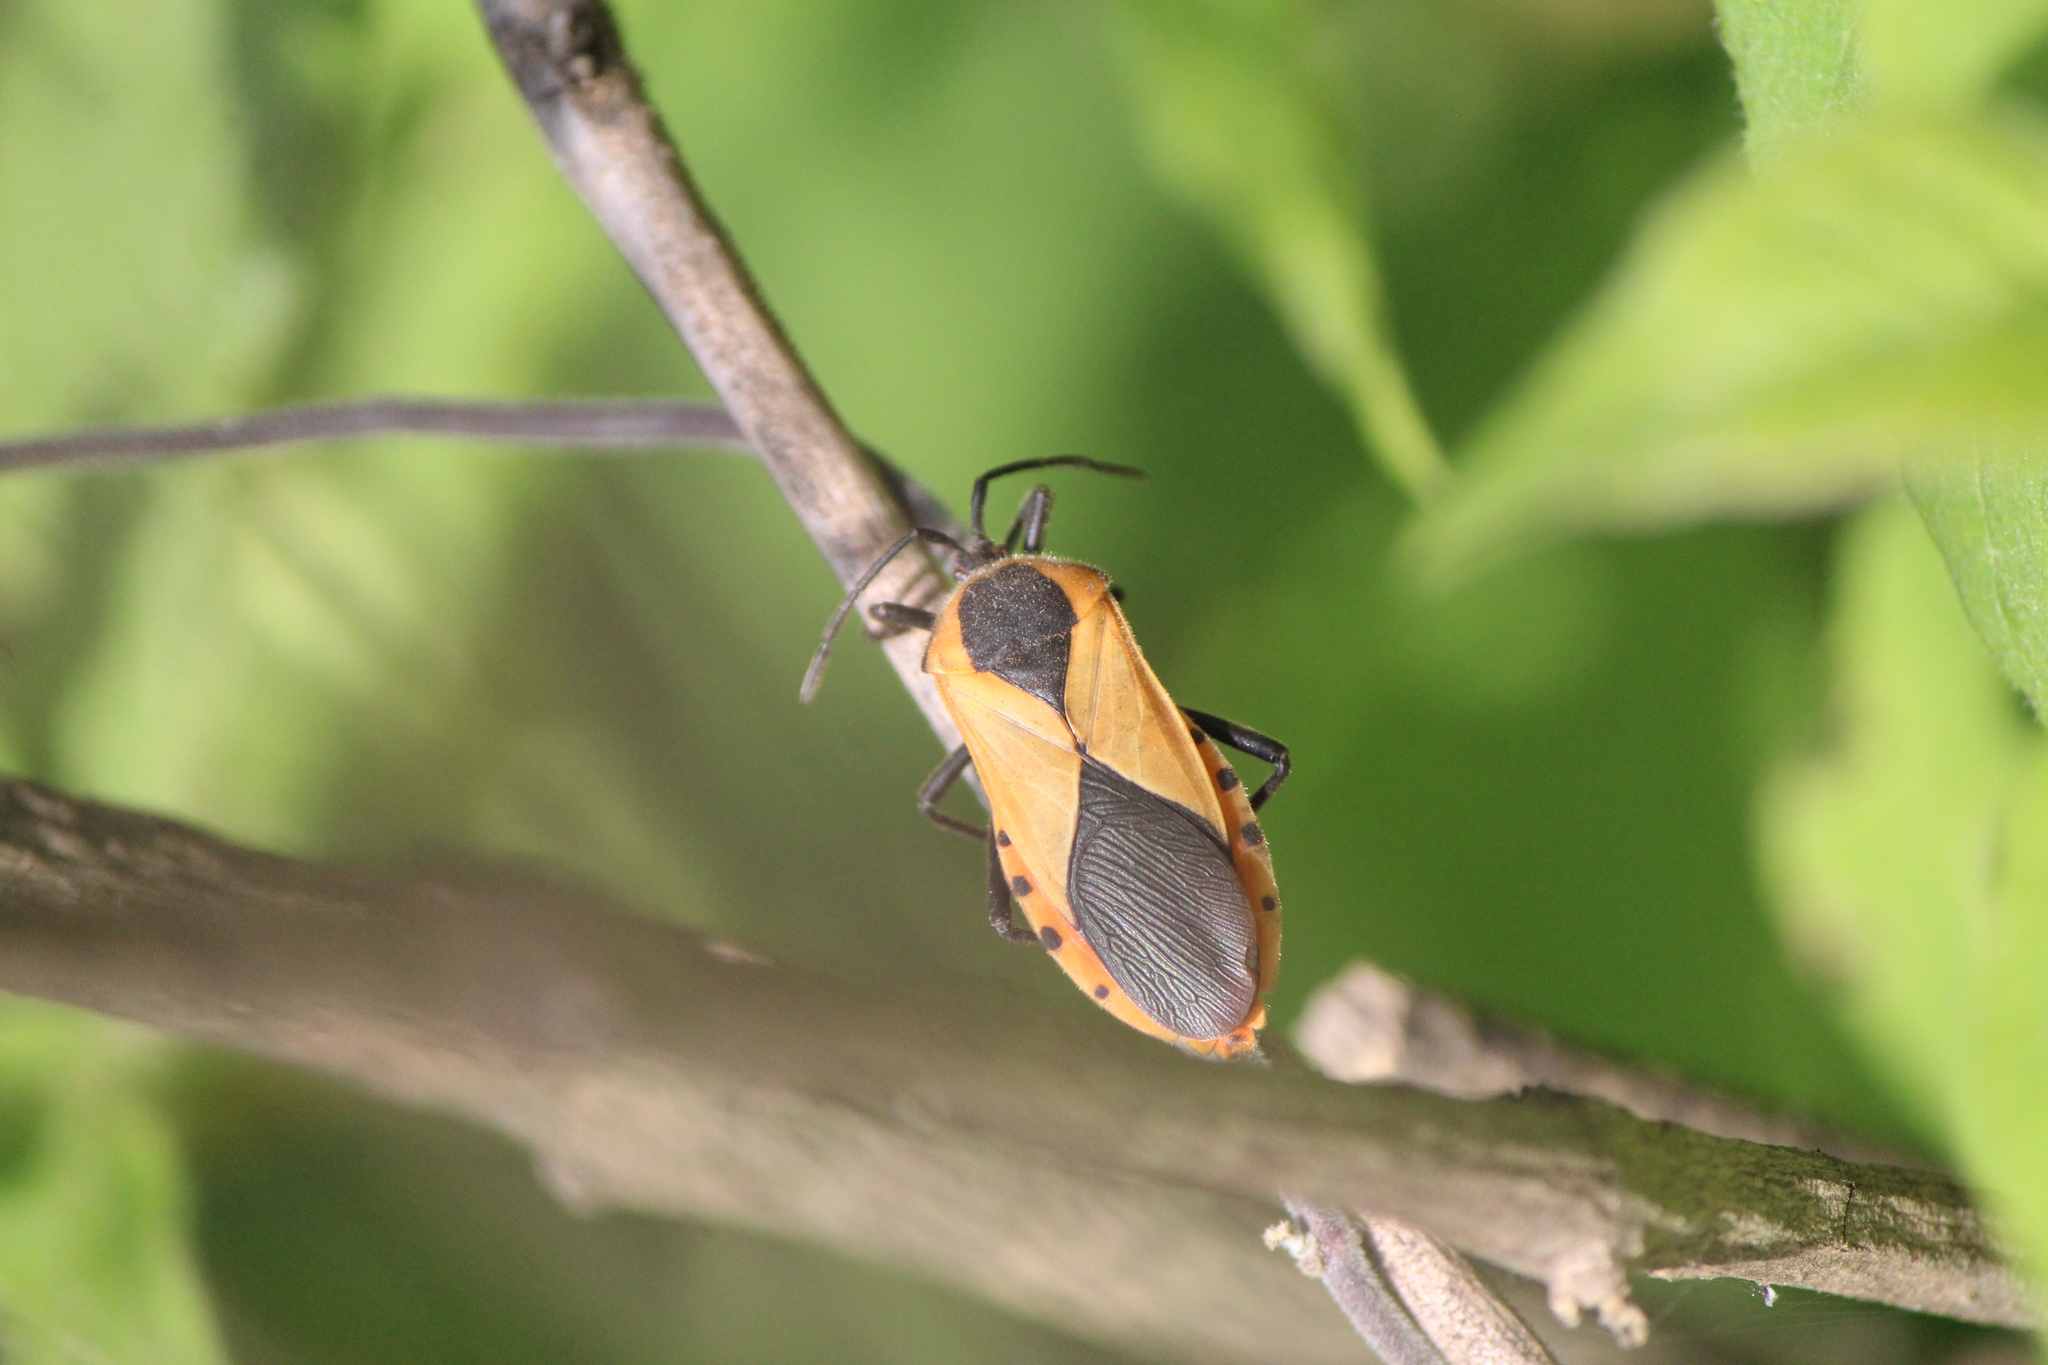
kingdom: Animalia
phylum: Arthropoda
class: Insecta
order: Hemiptera
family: Coreidae
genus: Sephina
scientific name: Sephina dorsalis
